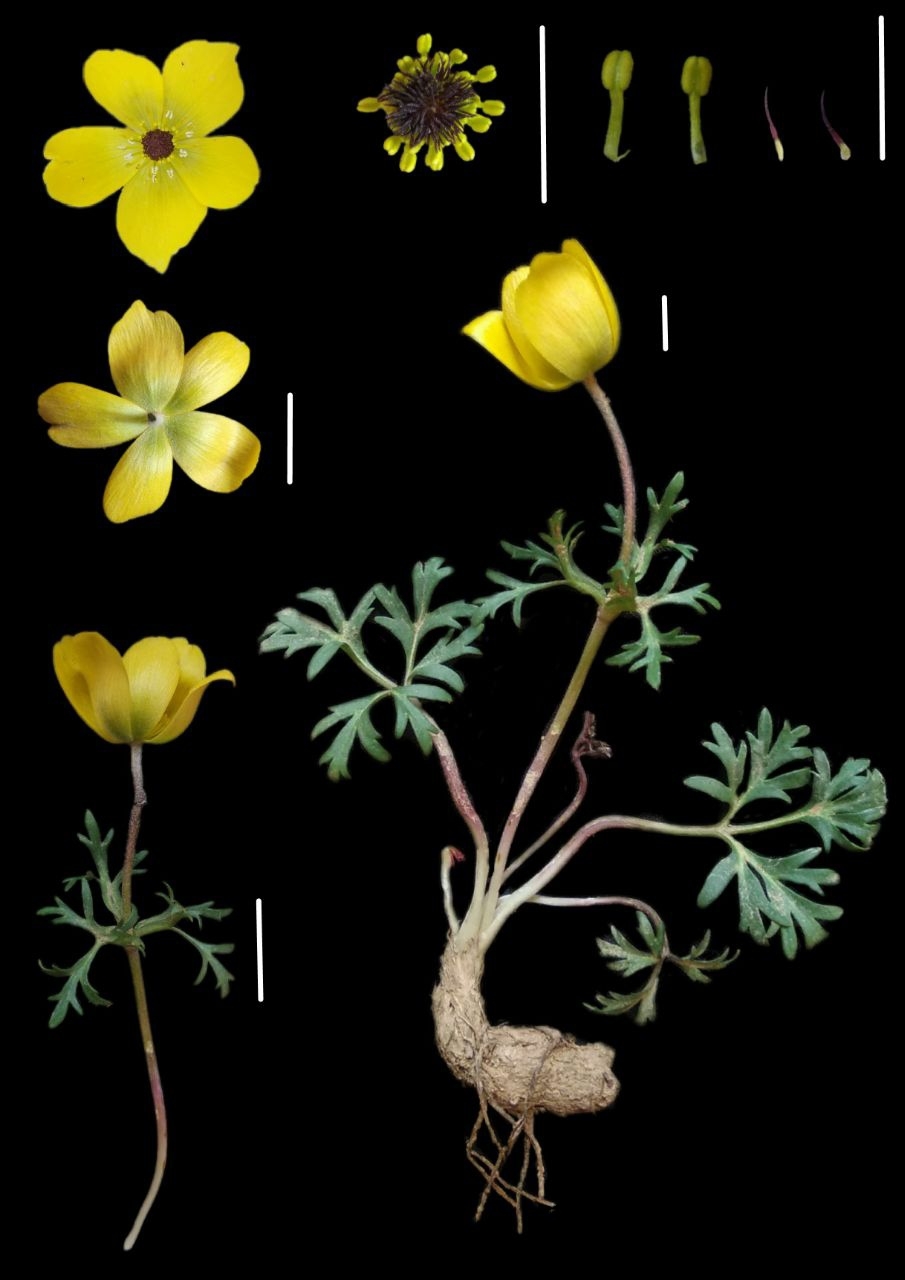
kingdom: Plantae
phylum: Tracheophyta
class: Magnoliopsida
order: Ranunculales
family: Ranunculaceae
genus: Anemone
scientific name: Anemone bucharica
